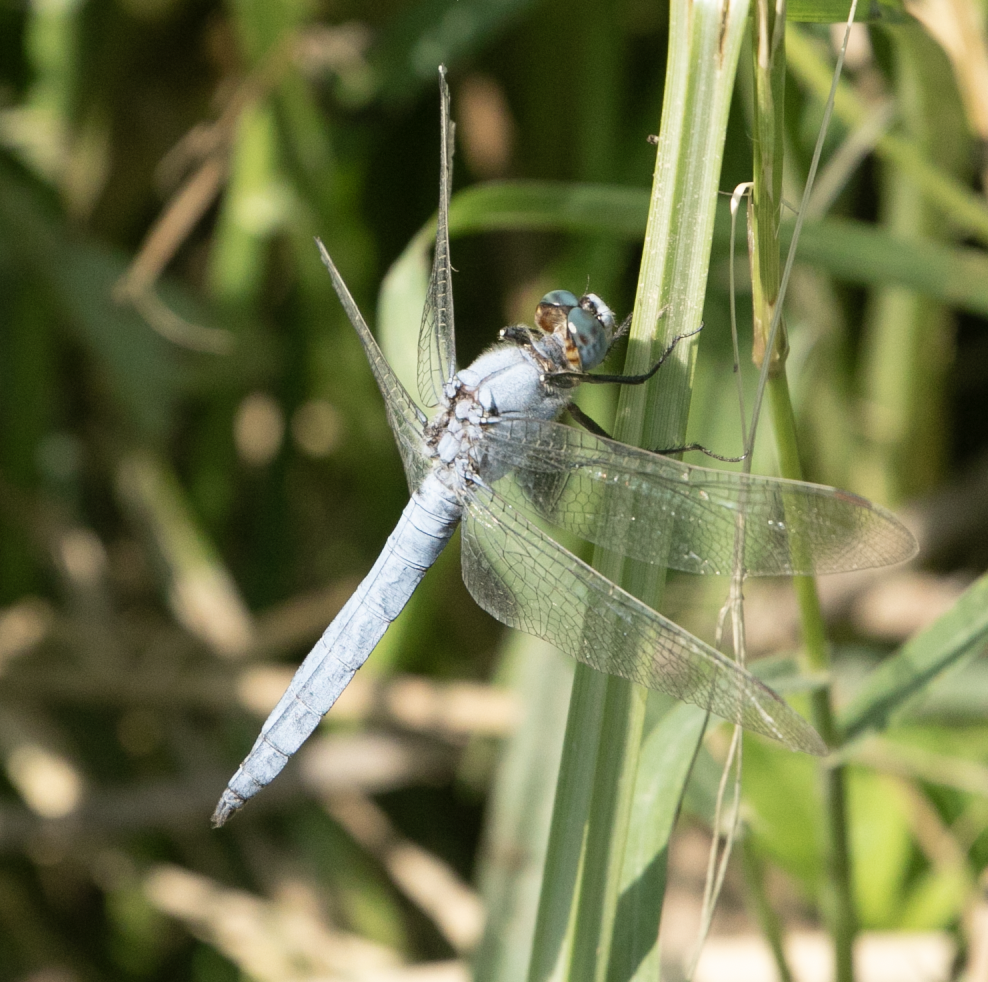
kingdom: Animalia
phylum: Arthropoda
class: Insecta
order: Odonata
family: Libellulidae
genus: Orthetrum
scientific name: Orthetrum brunneum
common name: Southern skimmer
